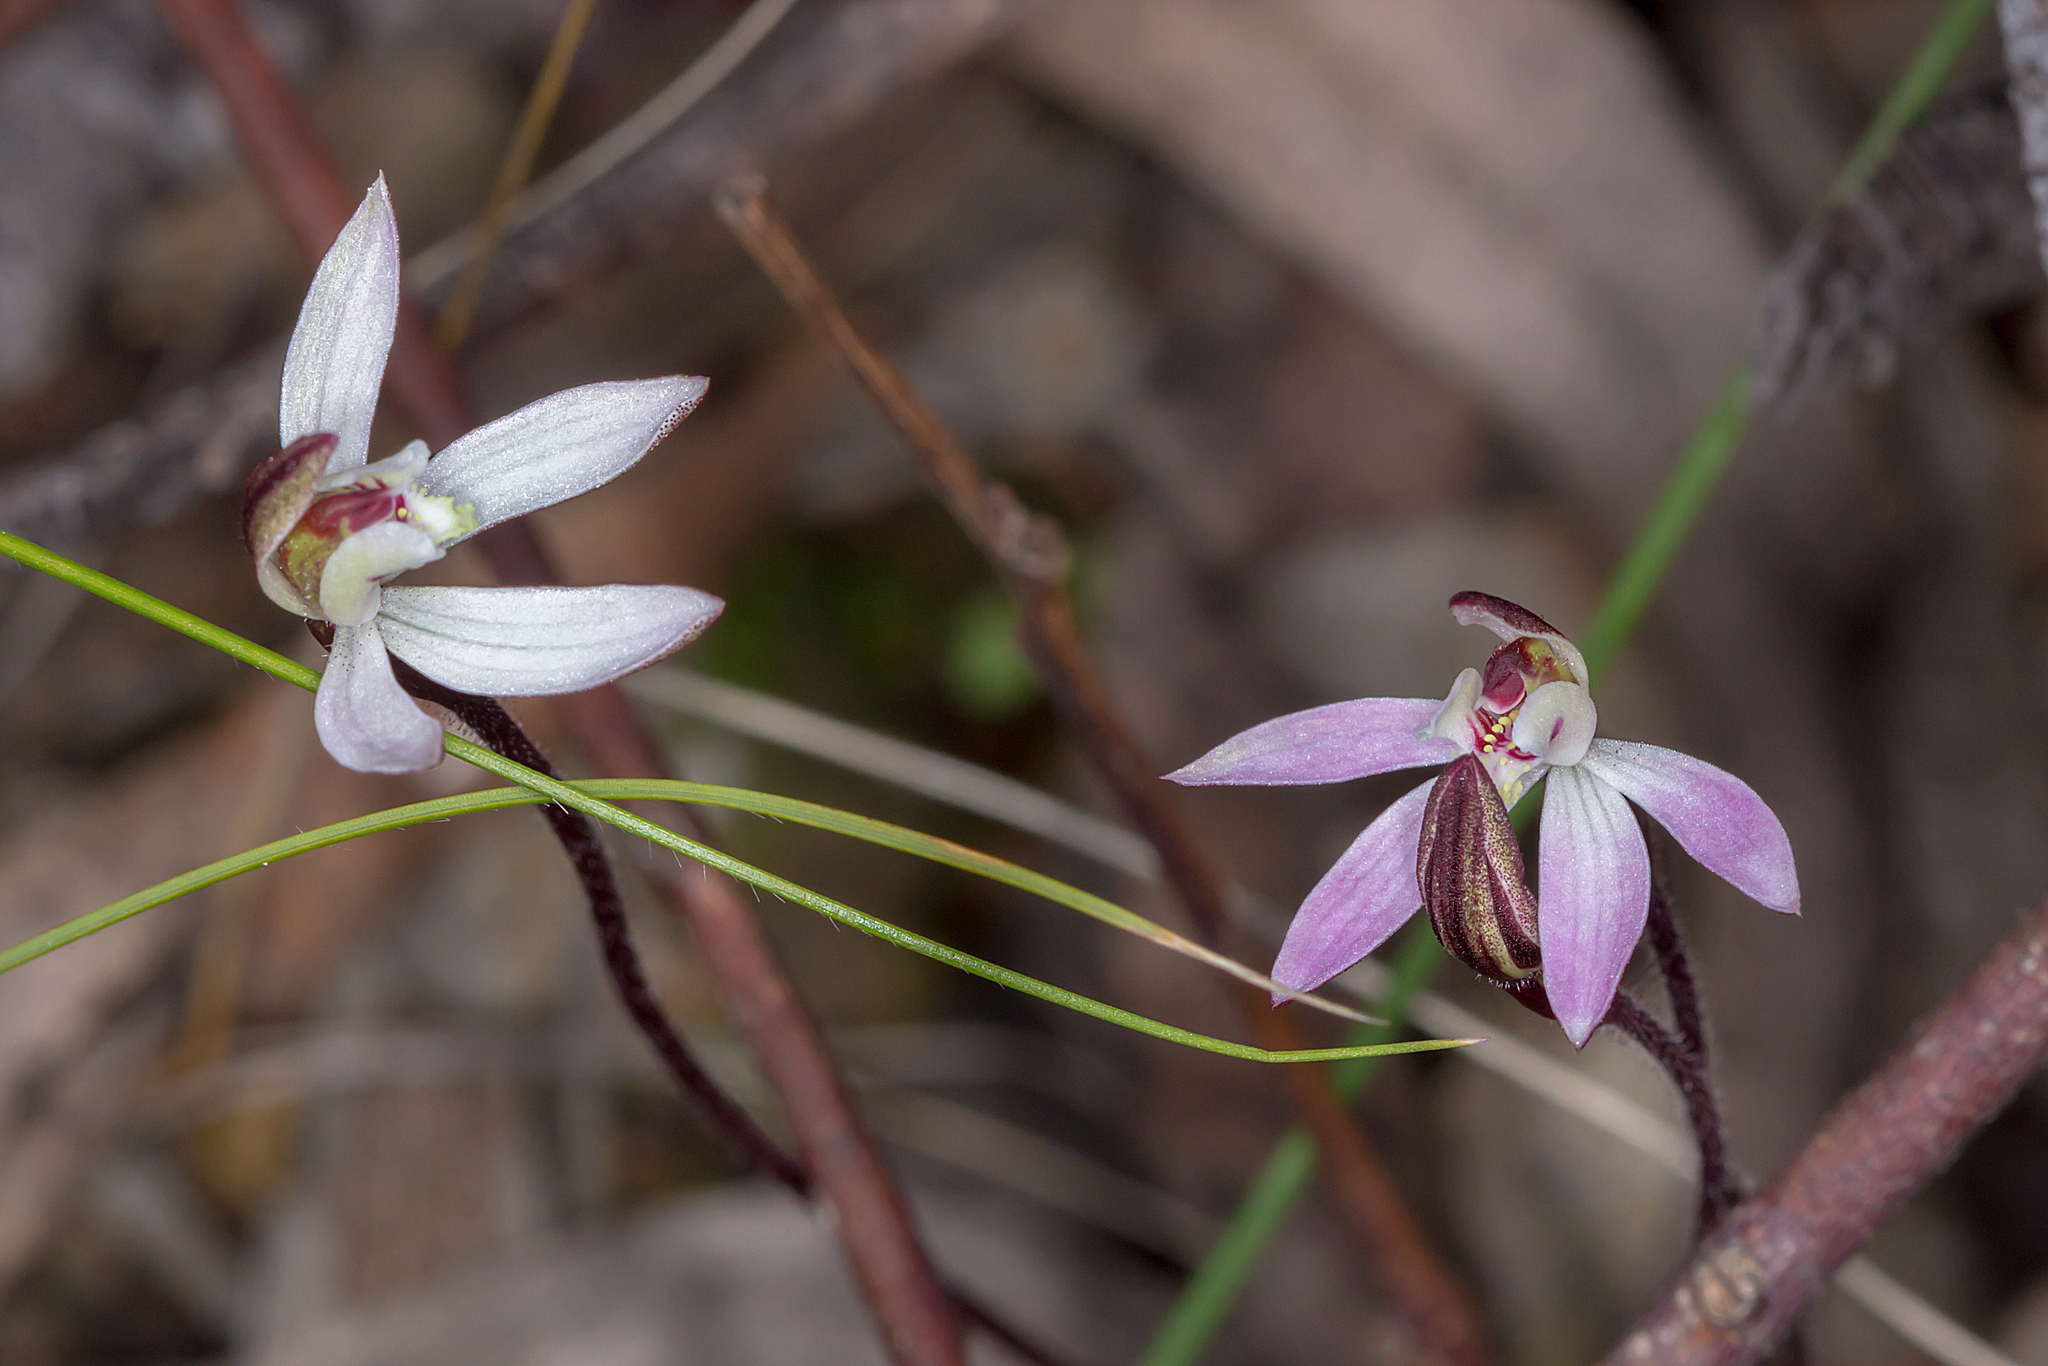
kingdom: Plantae
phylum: Tracheophyta
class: Liliopsida
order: Asparagales
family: Orchidaceae
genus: Caladenia
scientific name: Caladenia fuscata
